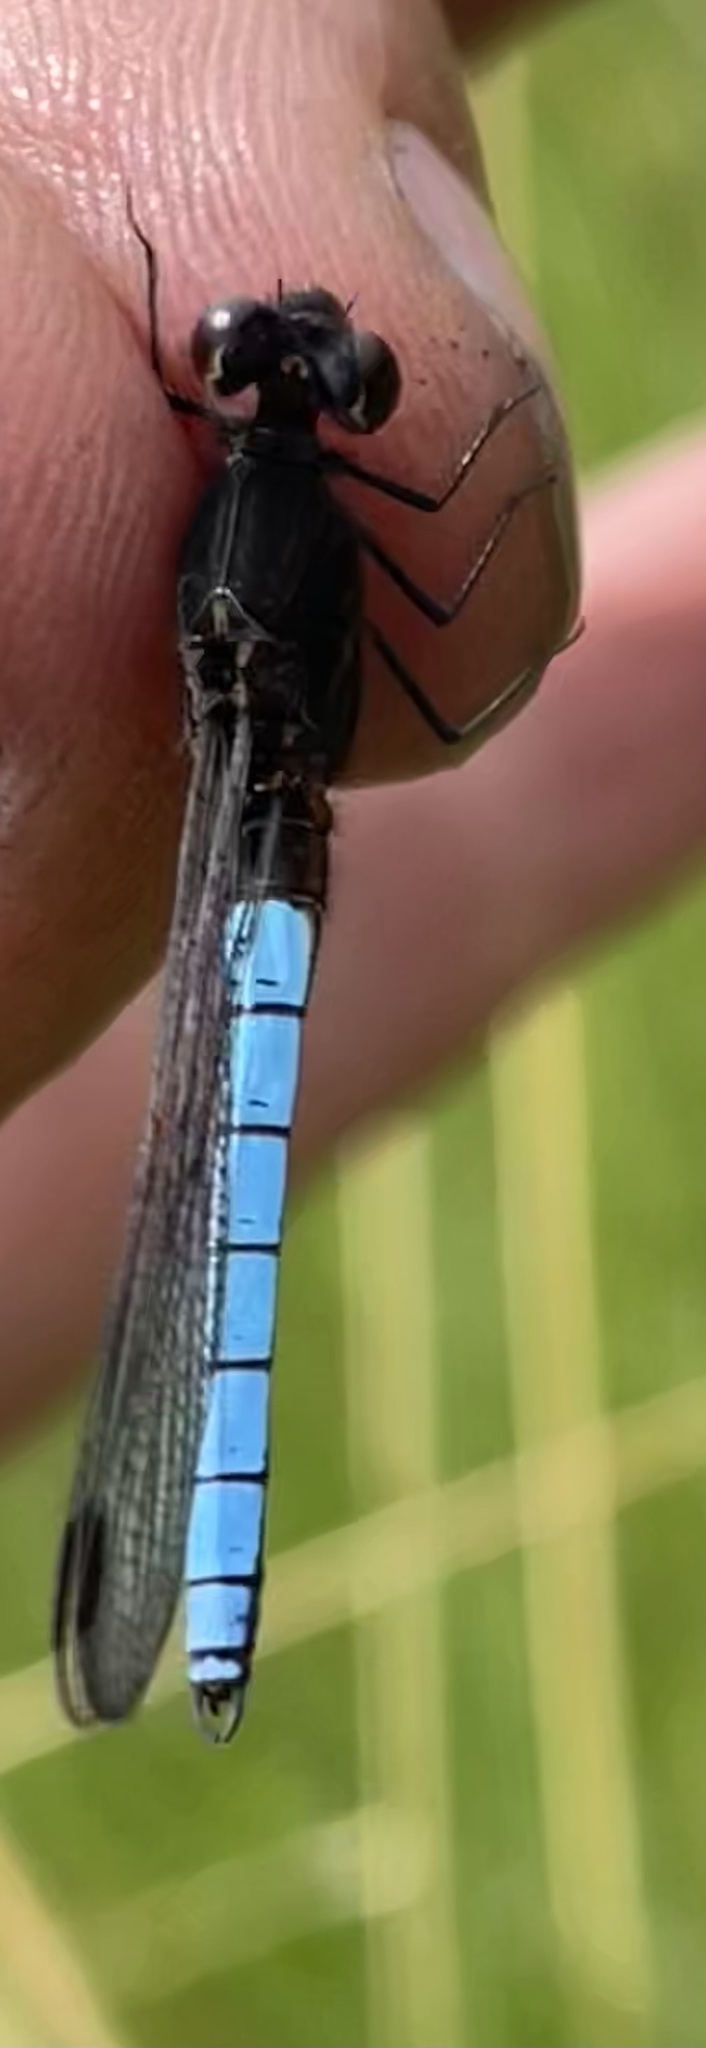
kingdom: Animalia
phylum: Arthropoda
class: Insecta
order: Odonata
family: Chlorocyphidae
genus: Platycypha
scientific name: Platycypha bamptoni
